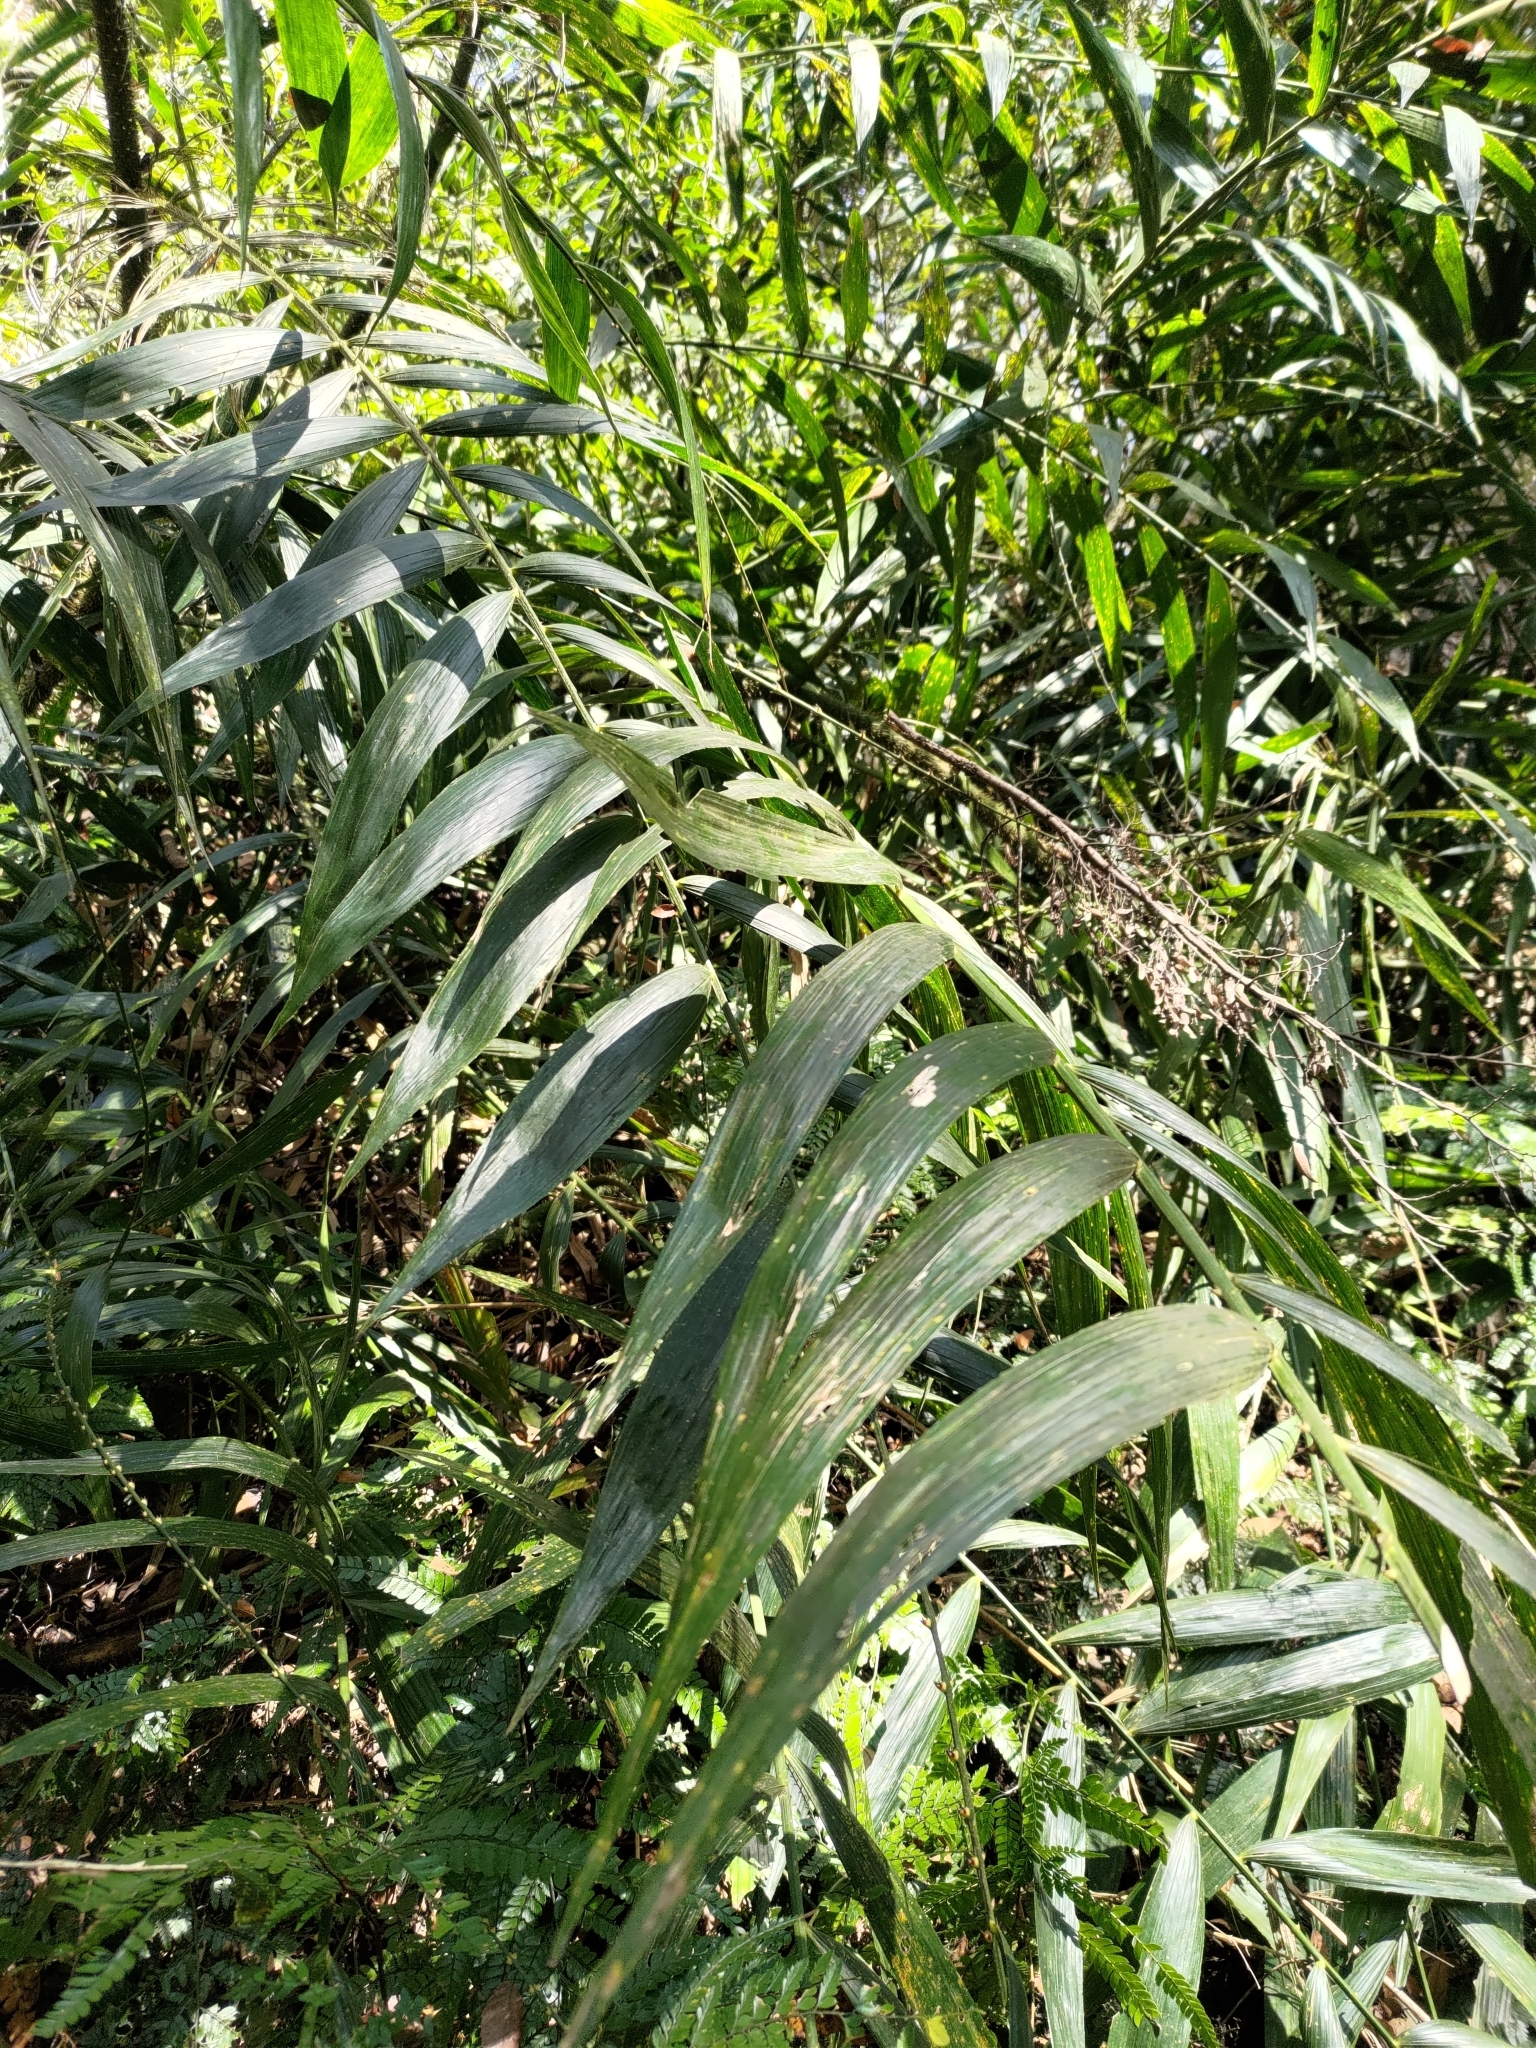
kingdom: Plantae
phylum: Tracheophyta
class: Liliopsida
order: Arecales
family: Arecaceae
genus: Calamus
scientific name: Calamus formosanus
